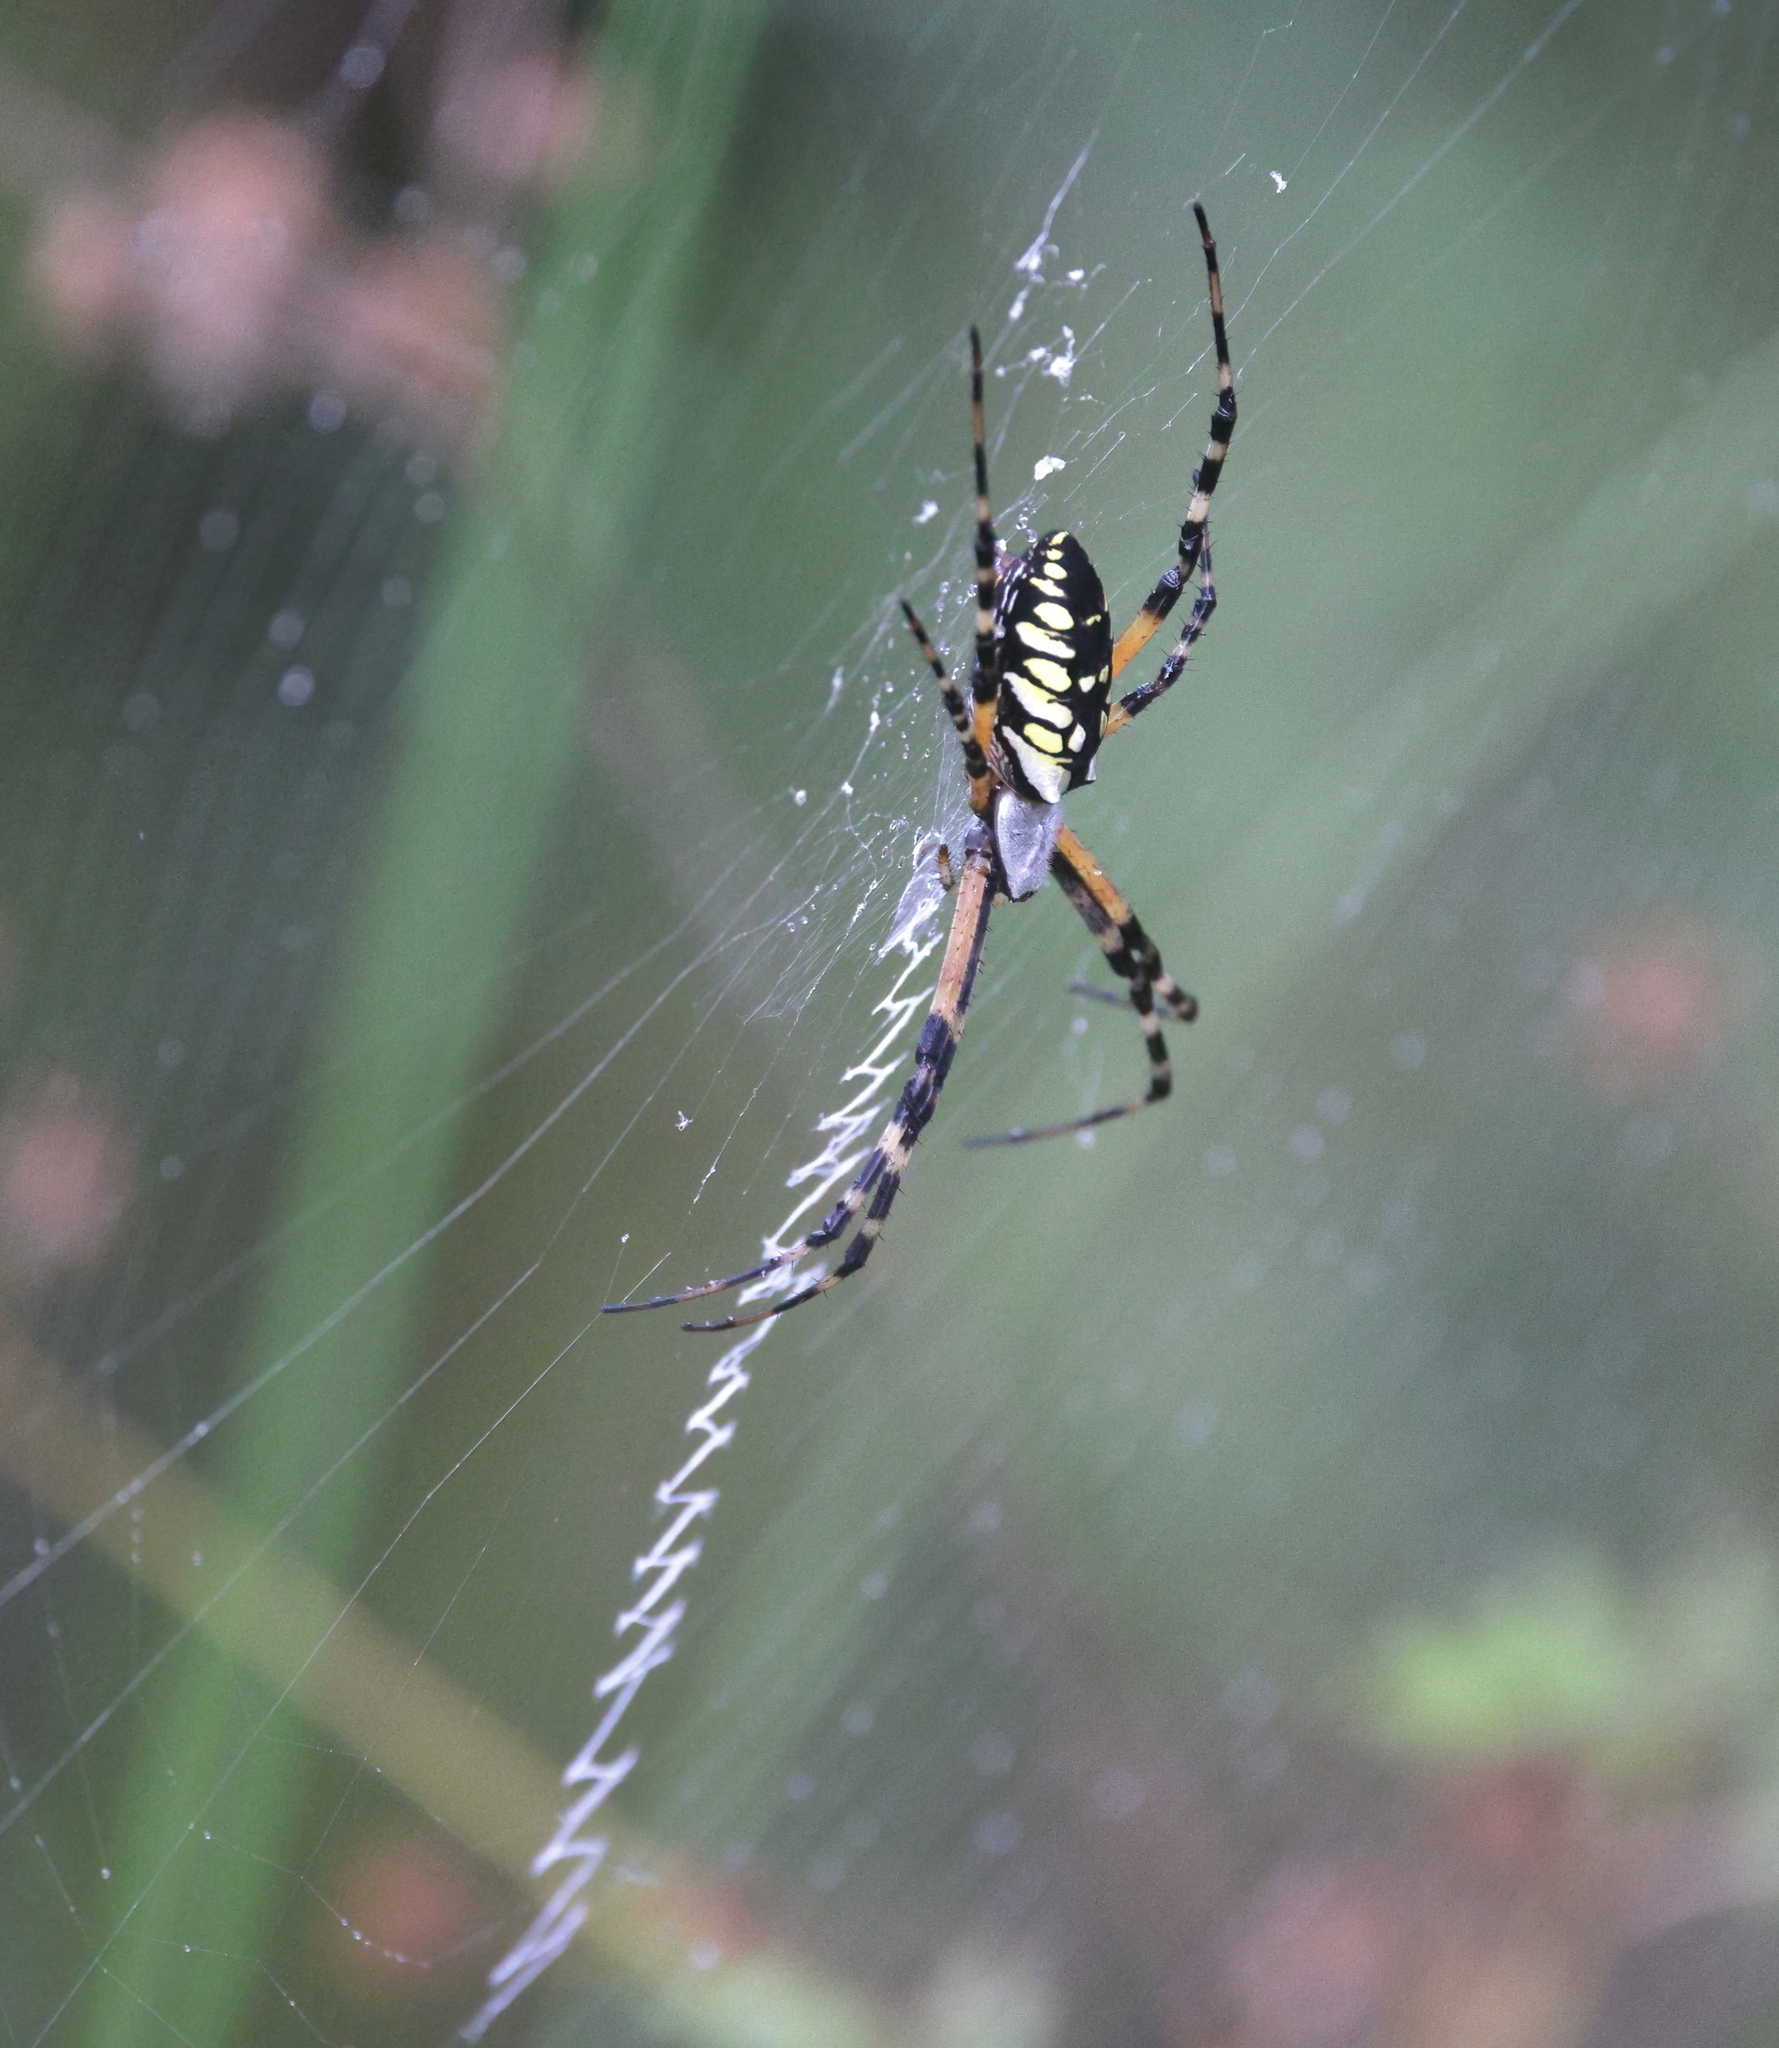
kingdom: Animalia
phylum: Arthropoda
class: Arachnida
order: Araneae
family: Araneidae
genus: Argiope
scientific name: Argiope aurantia
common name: Orb weavers
